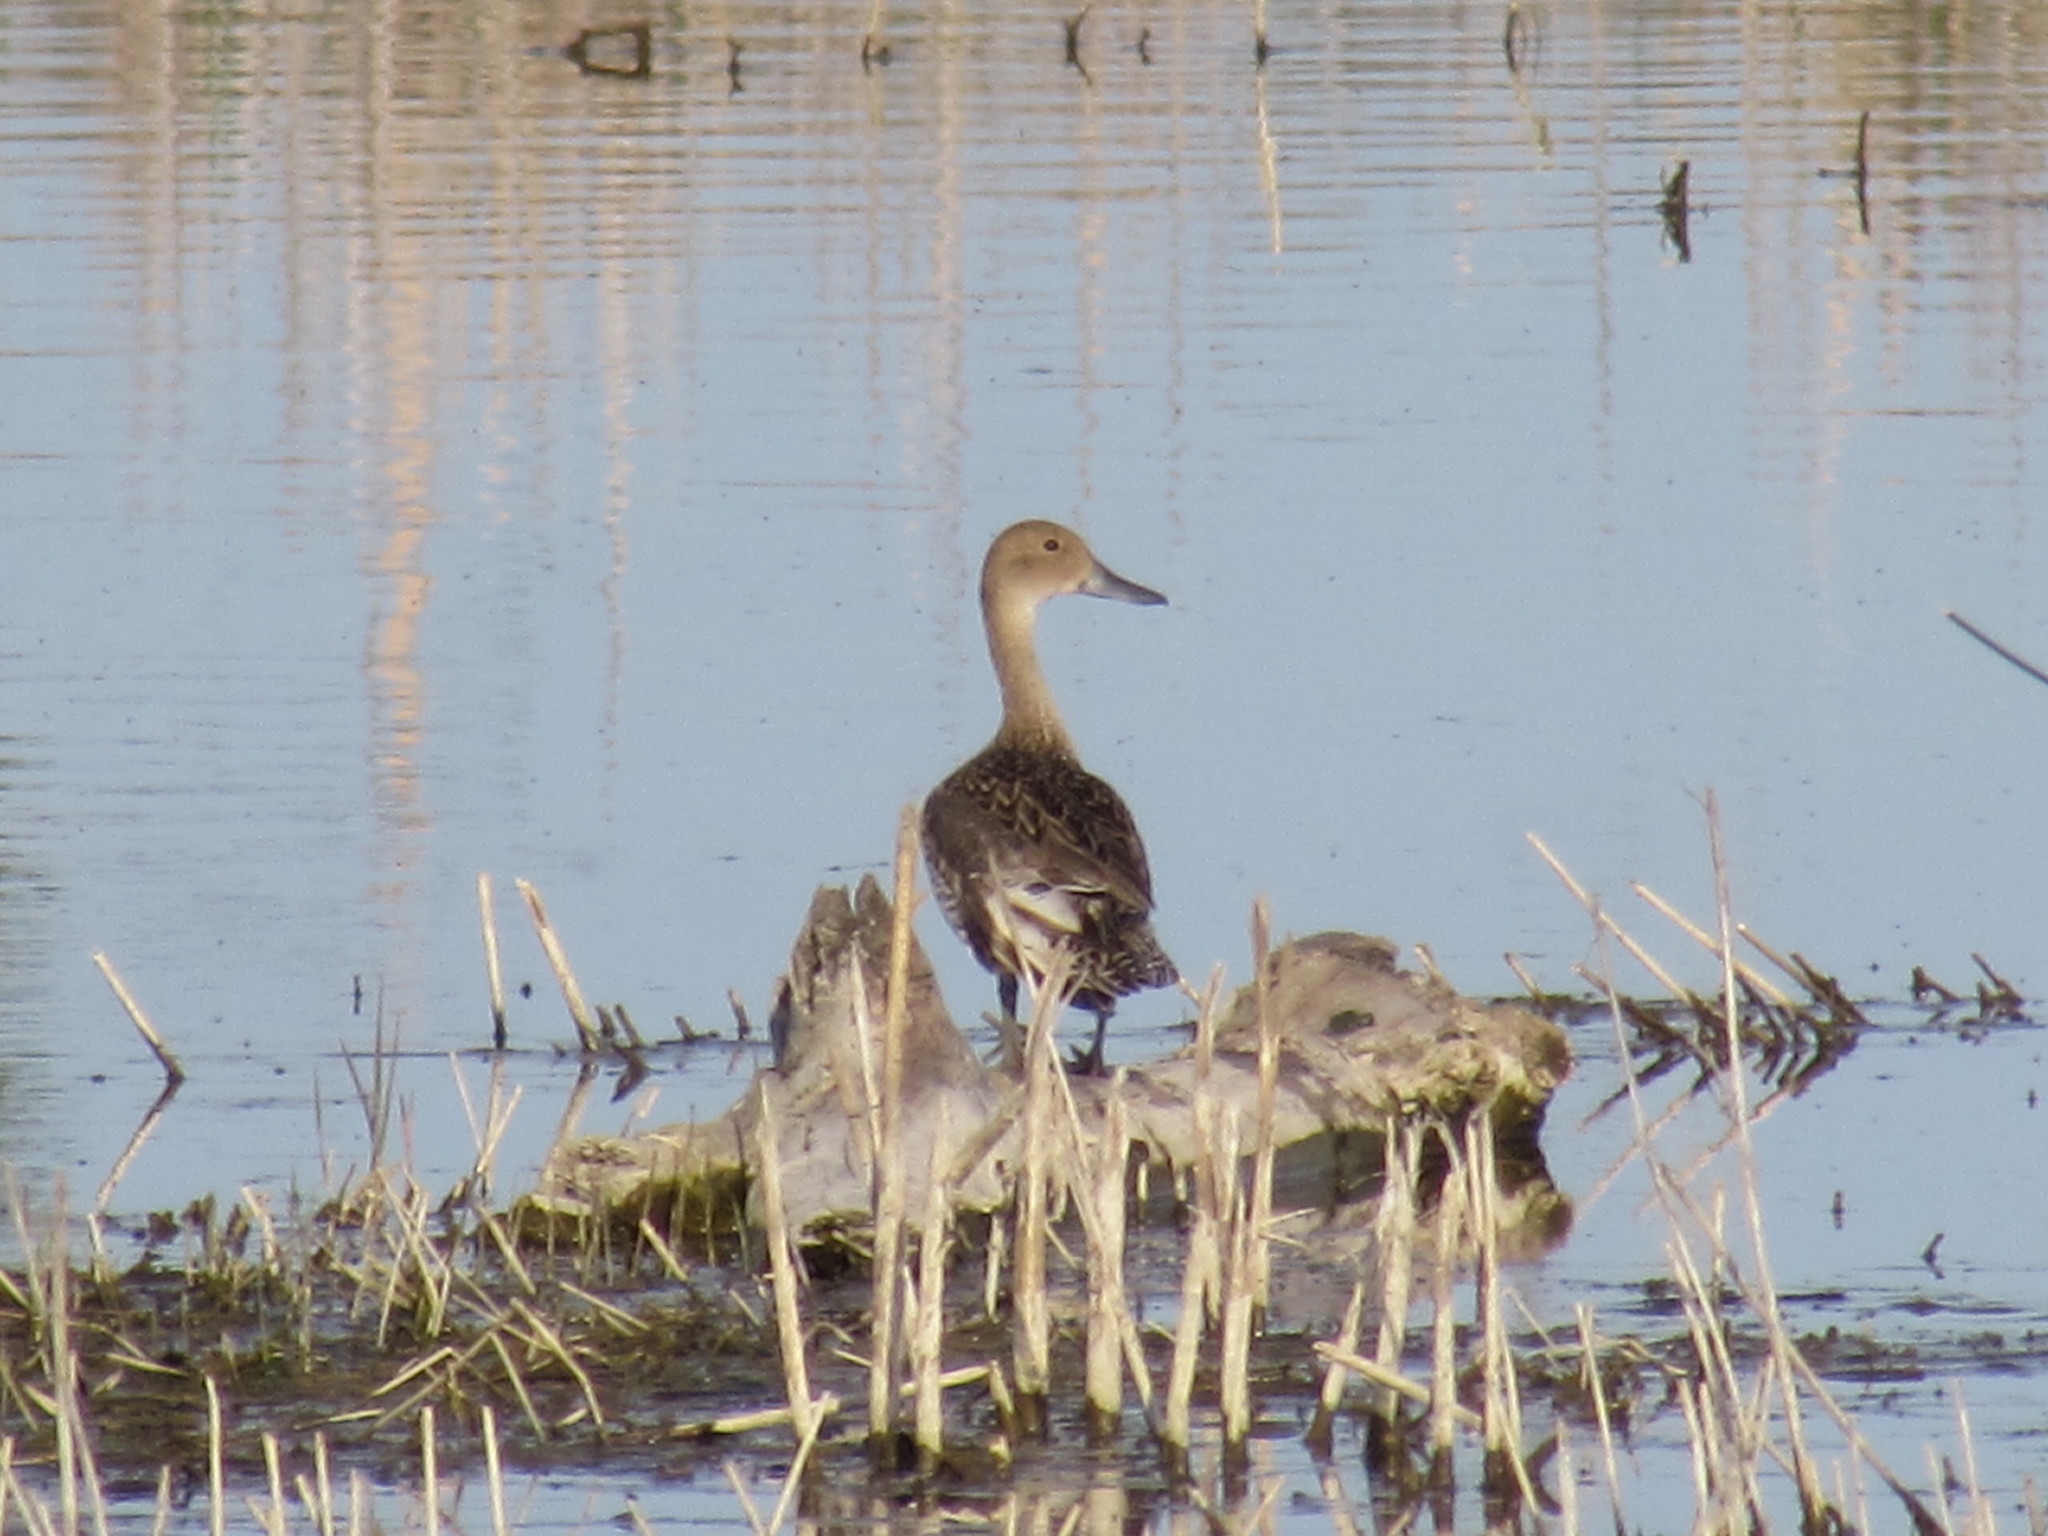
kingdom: Animalia
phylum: Chordata
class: Aves
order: Anseriformes
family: Anatidae
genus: Anas
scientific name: Anas acuta
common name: Northern pintail
